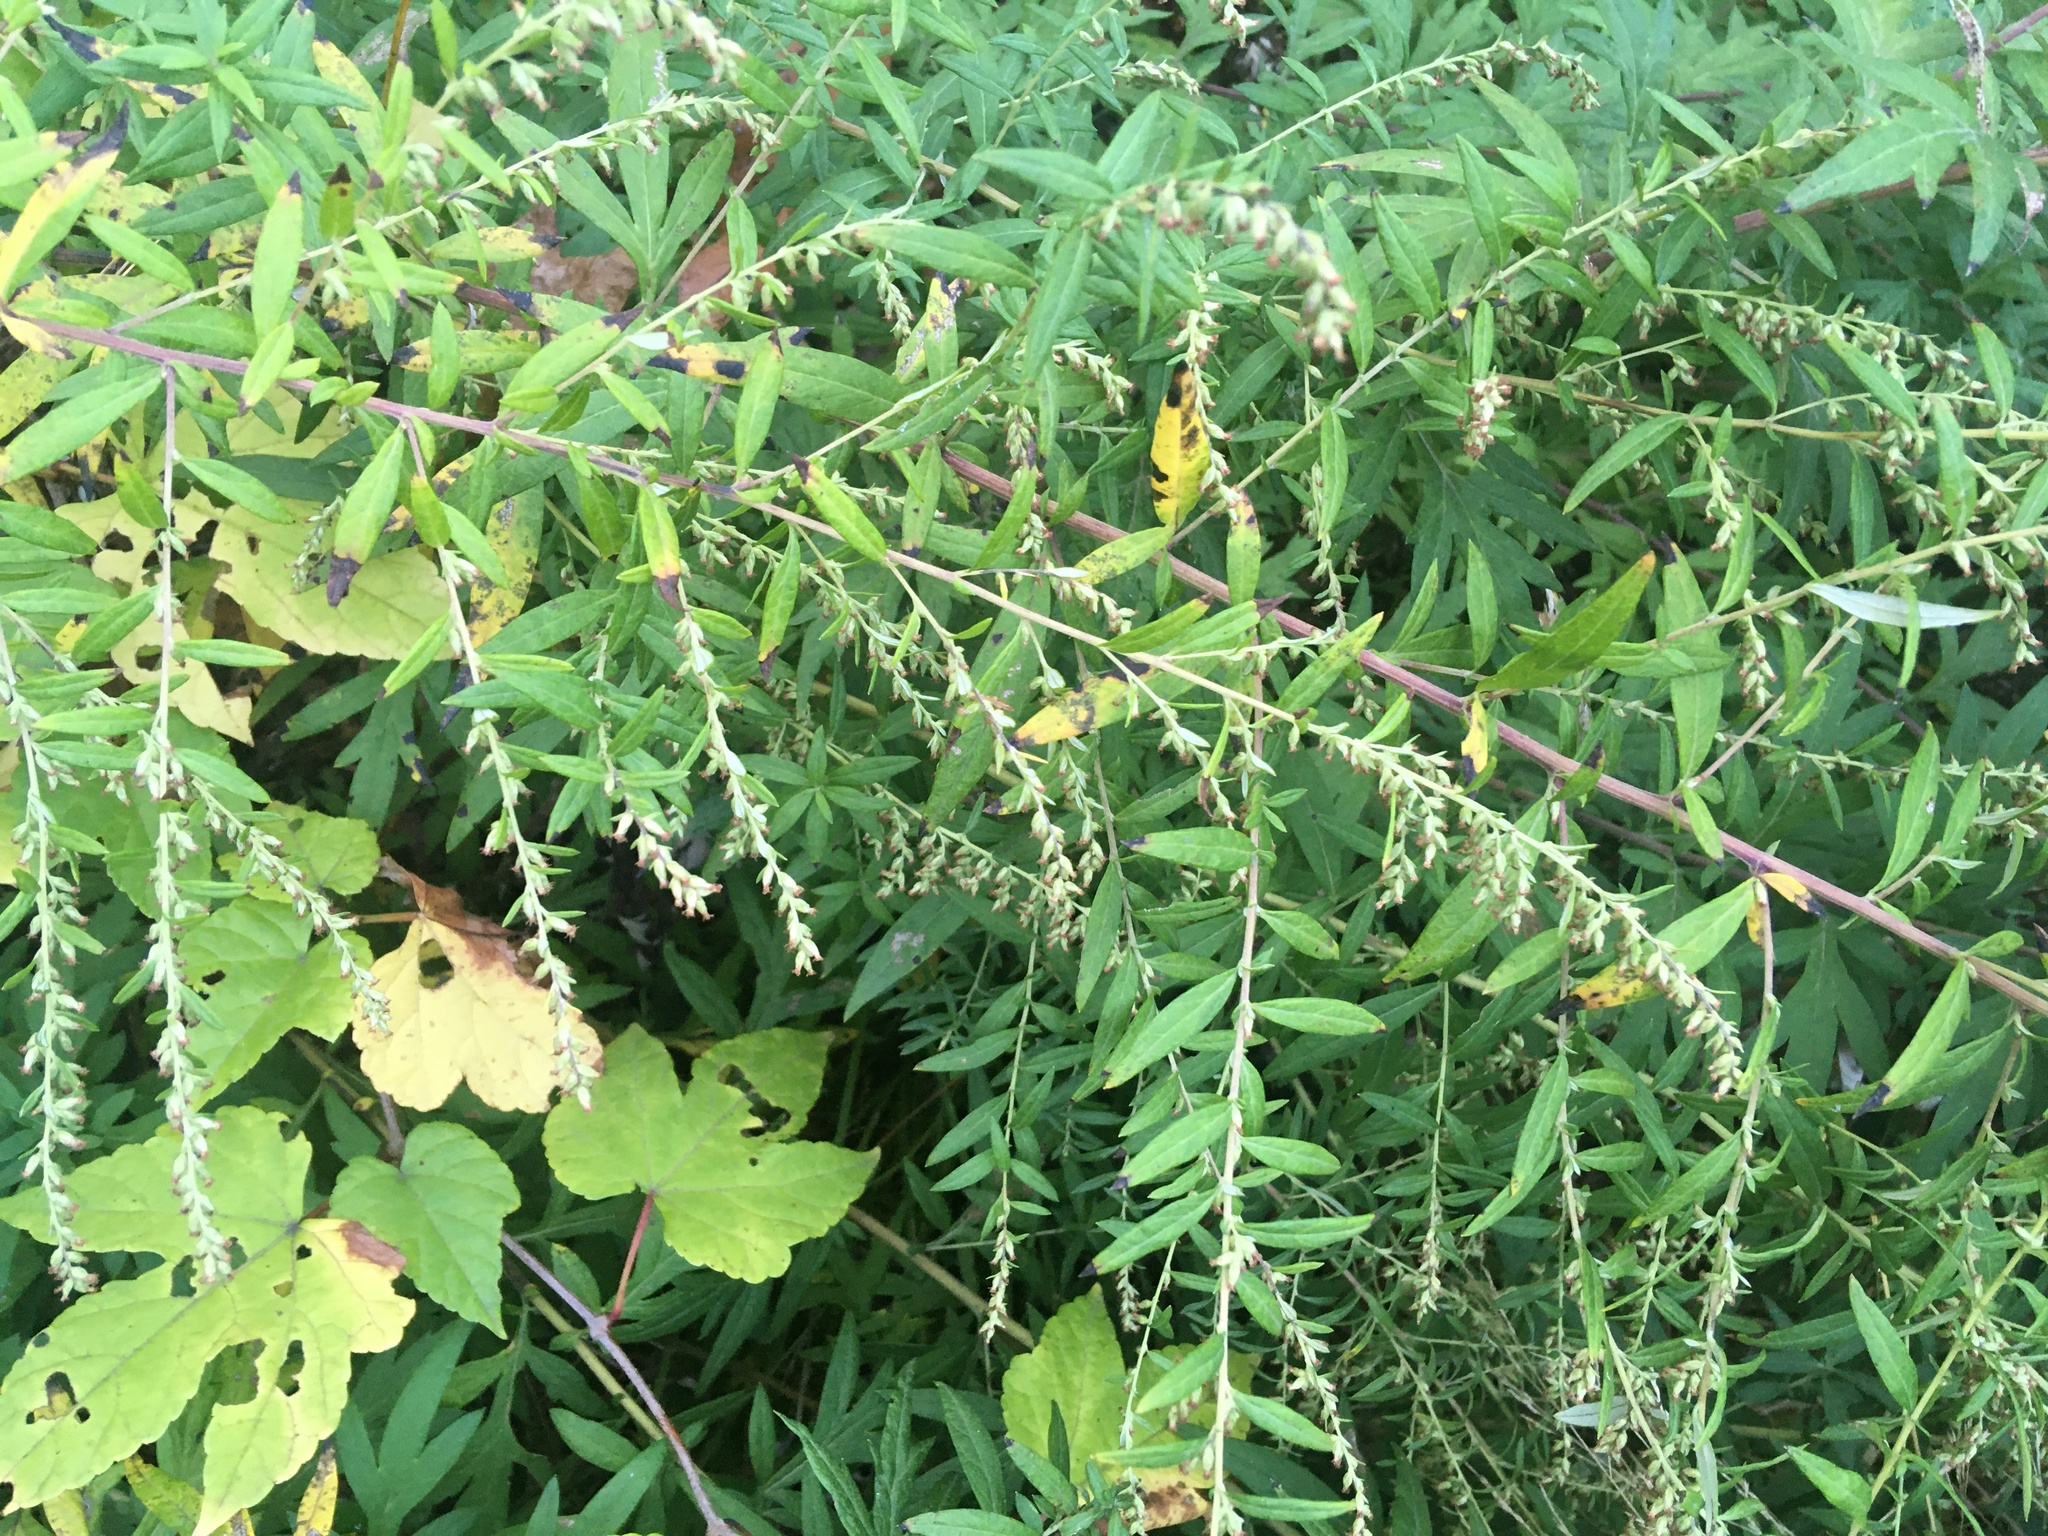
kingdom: Plantae
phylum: Tracheophyta
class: Magnoliopsida
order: Asterales
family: Asteraceae
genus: Artemisia
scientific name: Artemisia vulgaris
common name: Mugwort
